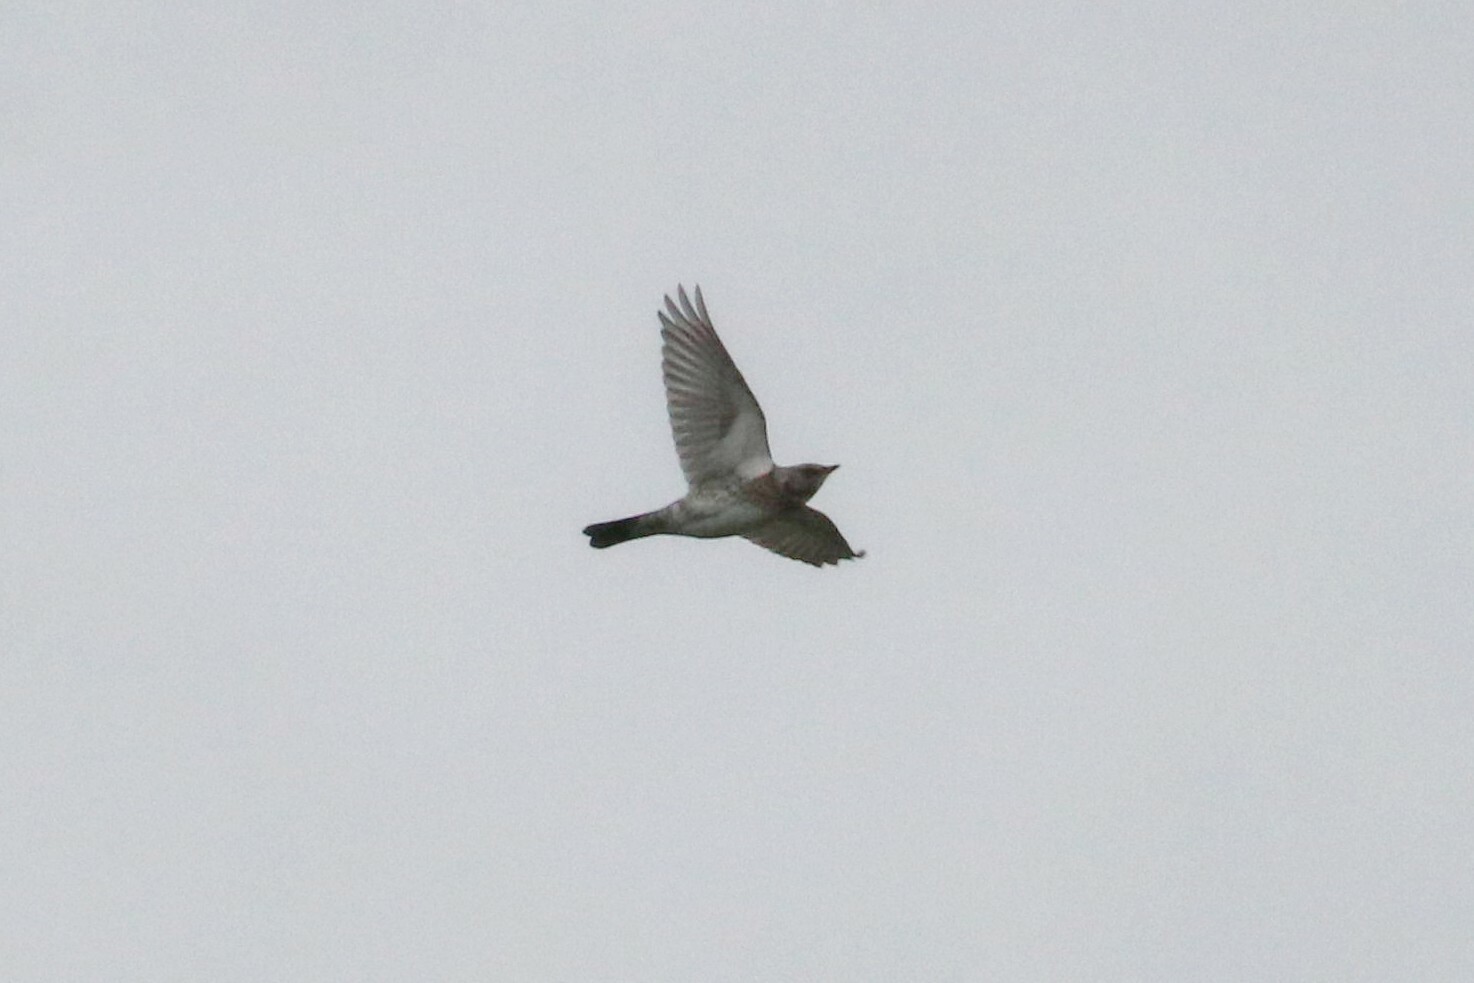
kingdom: Animalia
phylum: Chordata
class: Aves
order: Passeriformes
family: Turdidae
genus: Turdus
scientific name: Turdus pilaris
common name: Fieldfare
